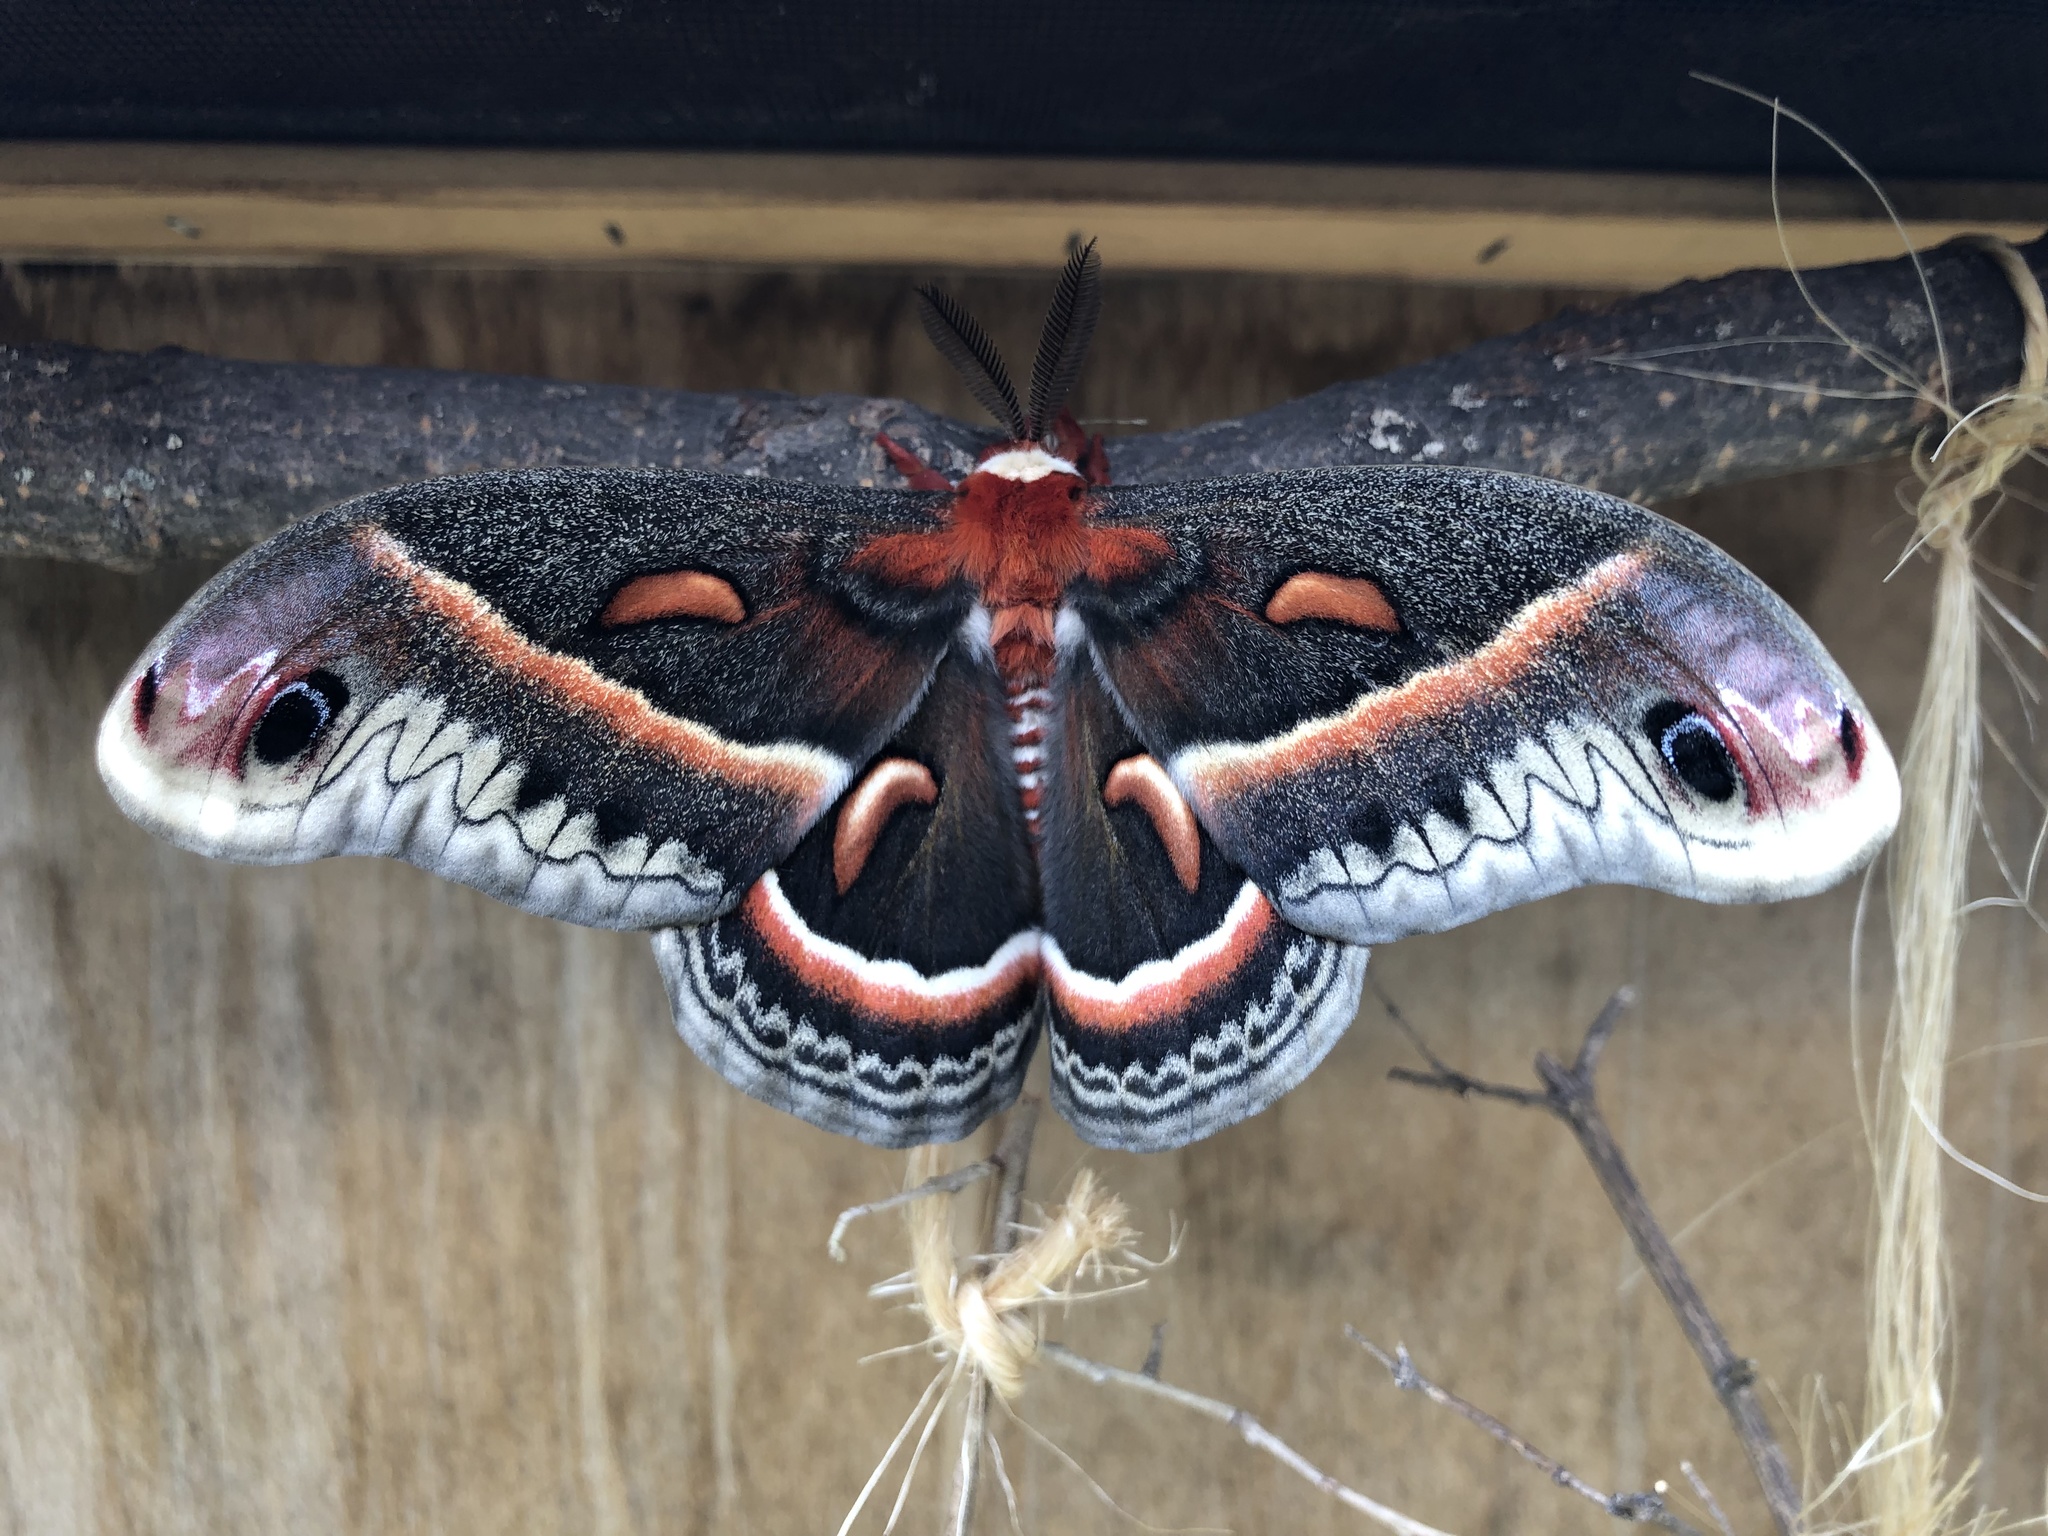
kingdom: Animalia
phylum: Arthropoda
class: Insecta
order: Lepidoptera
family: Saturniidae
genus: Hyalophora
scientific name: Hyalophora cecropia
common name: Cecropia silkmoth
